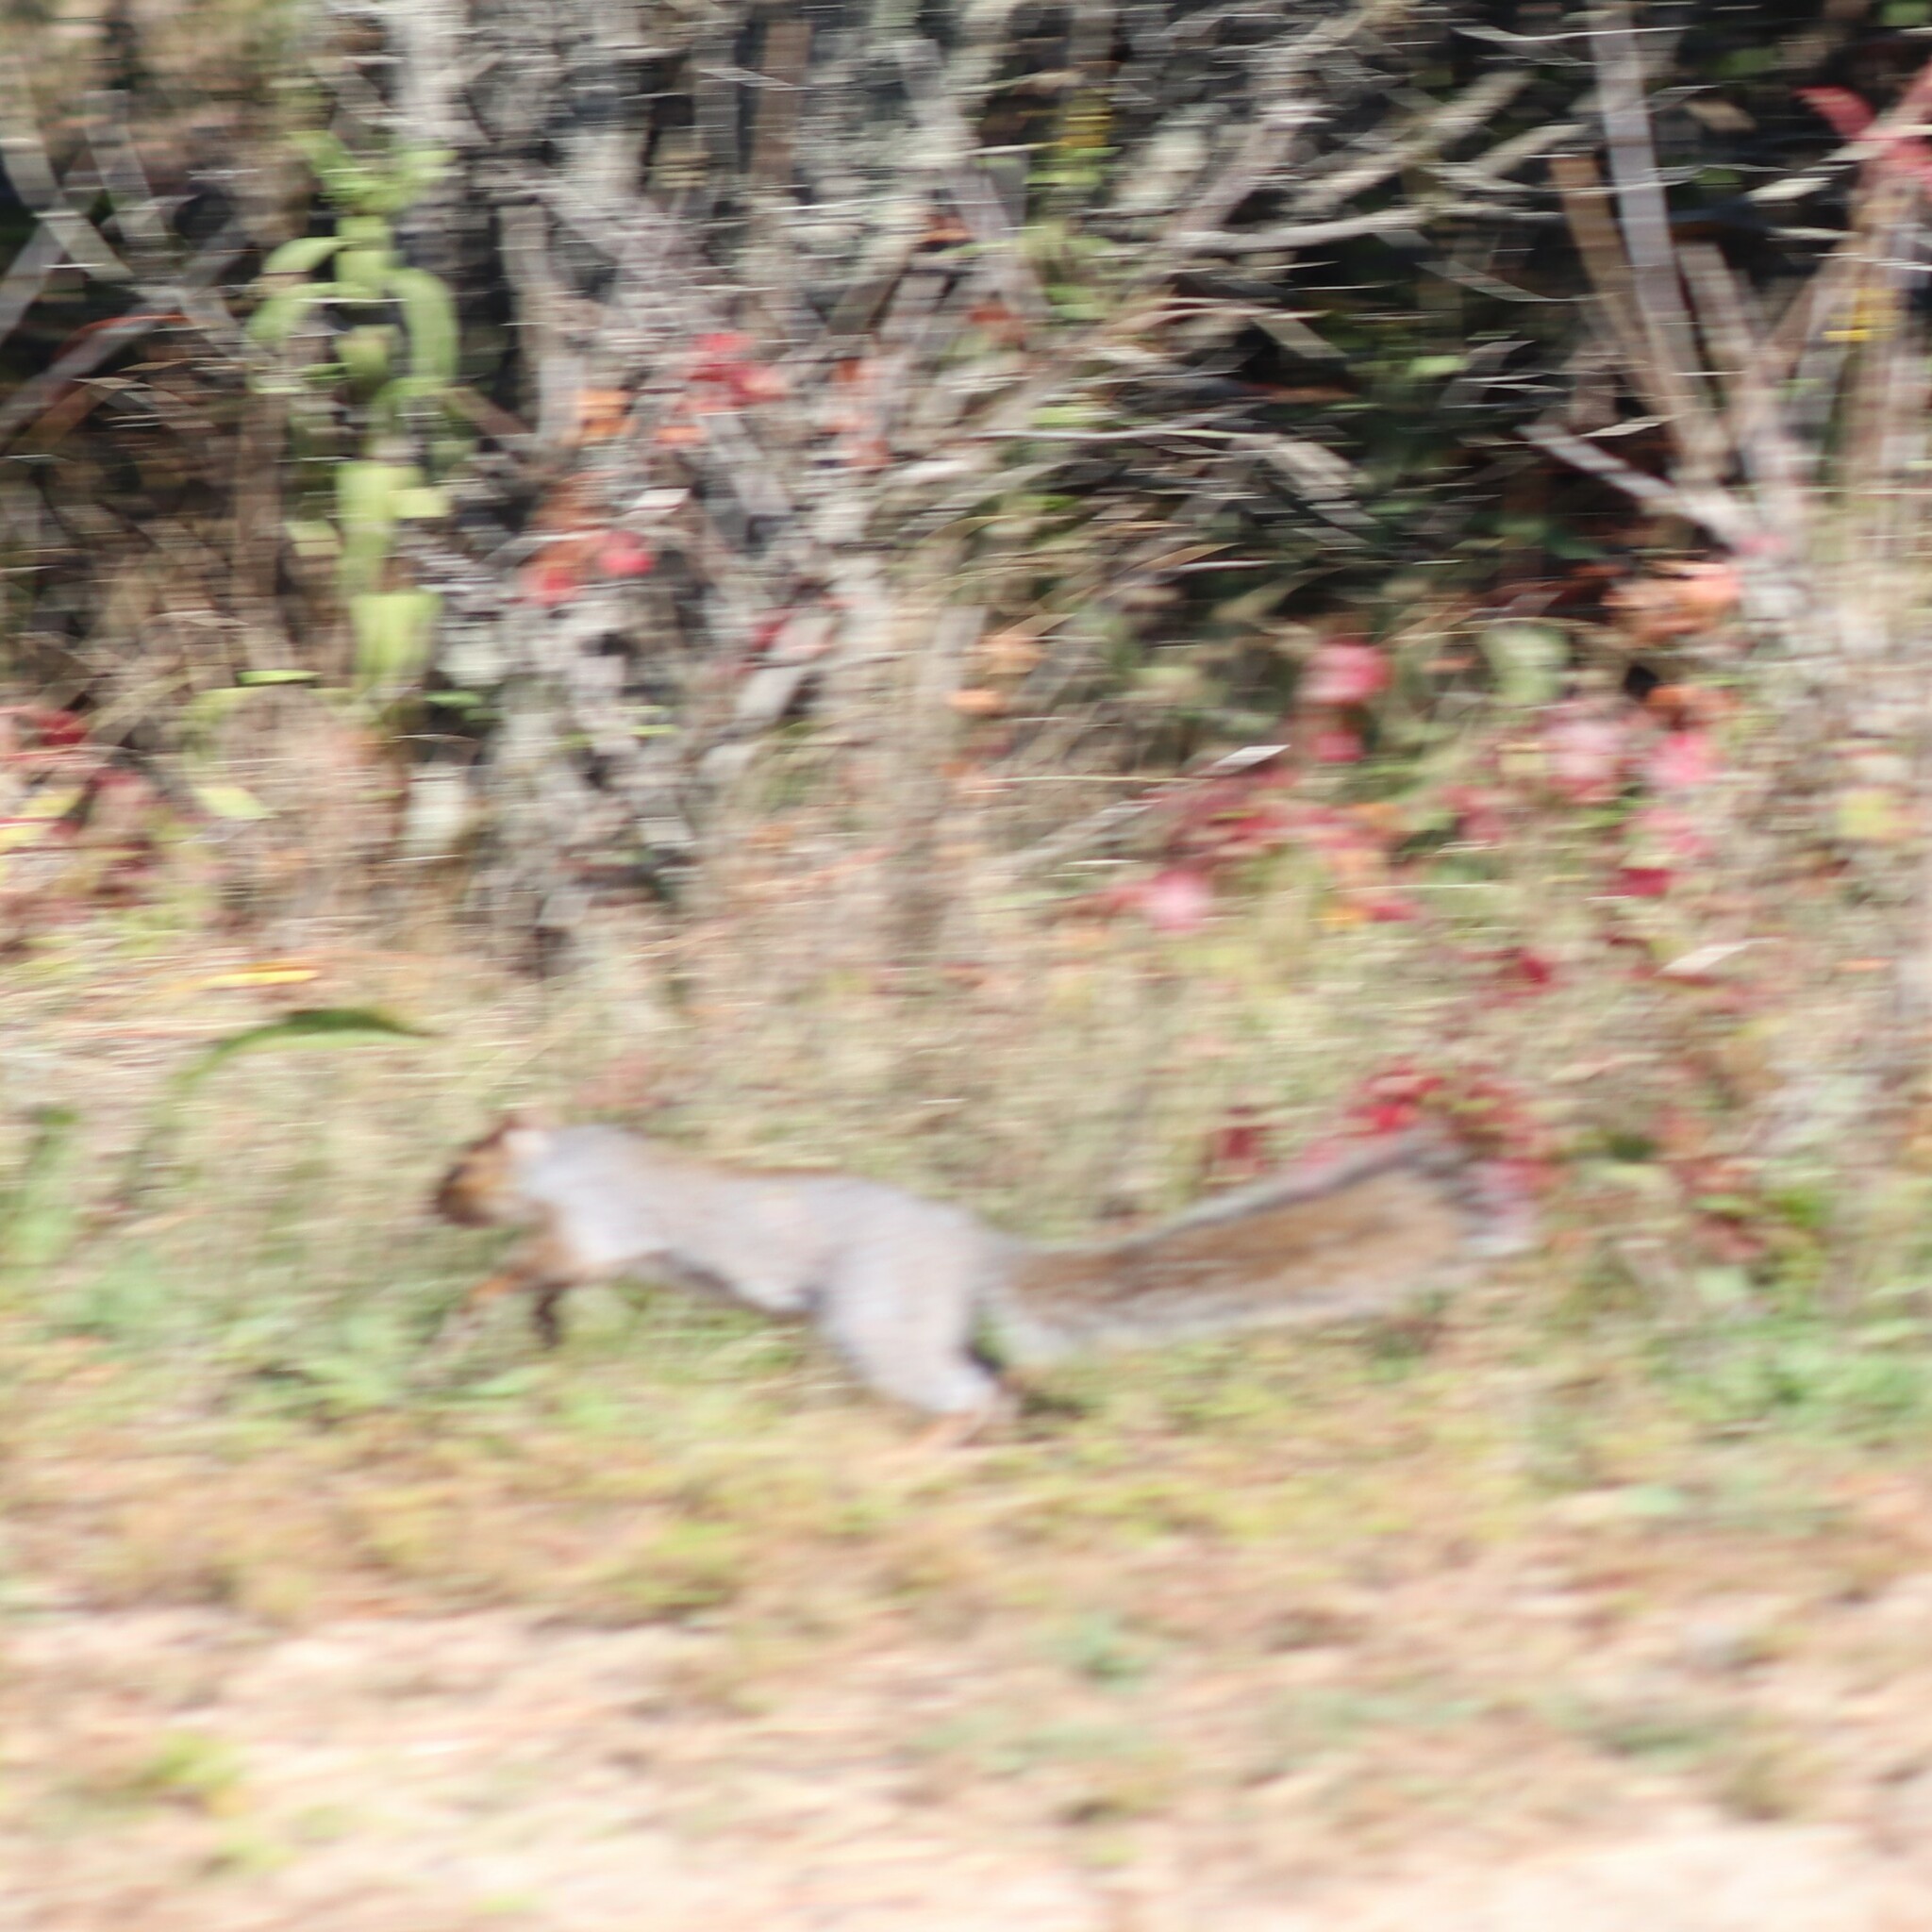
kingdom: Animalia
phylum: Chordata
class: Mammalia
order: Rodentia
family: Sciuridae
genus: Sciurus
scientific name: Sciurus carolinensis
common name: Eastern gray squirrel
